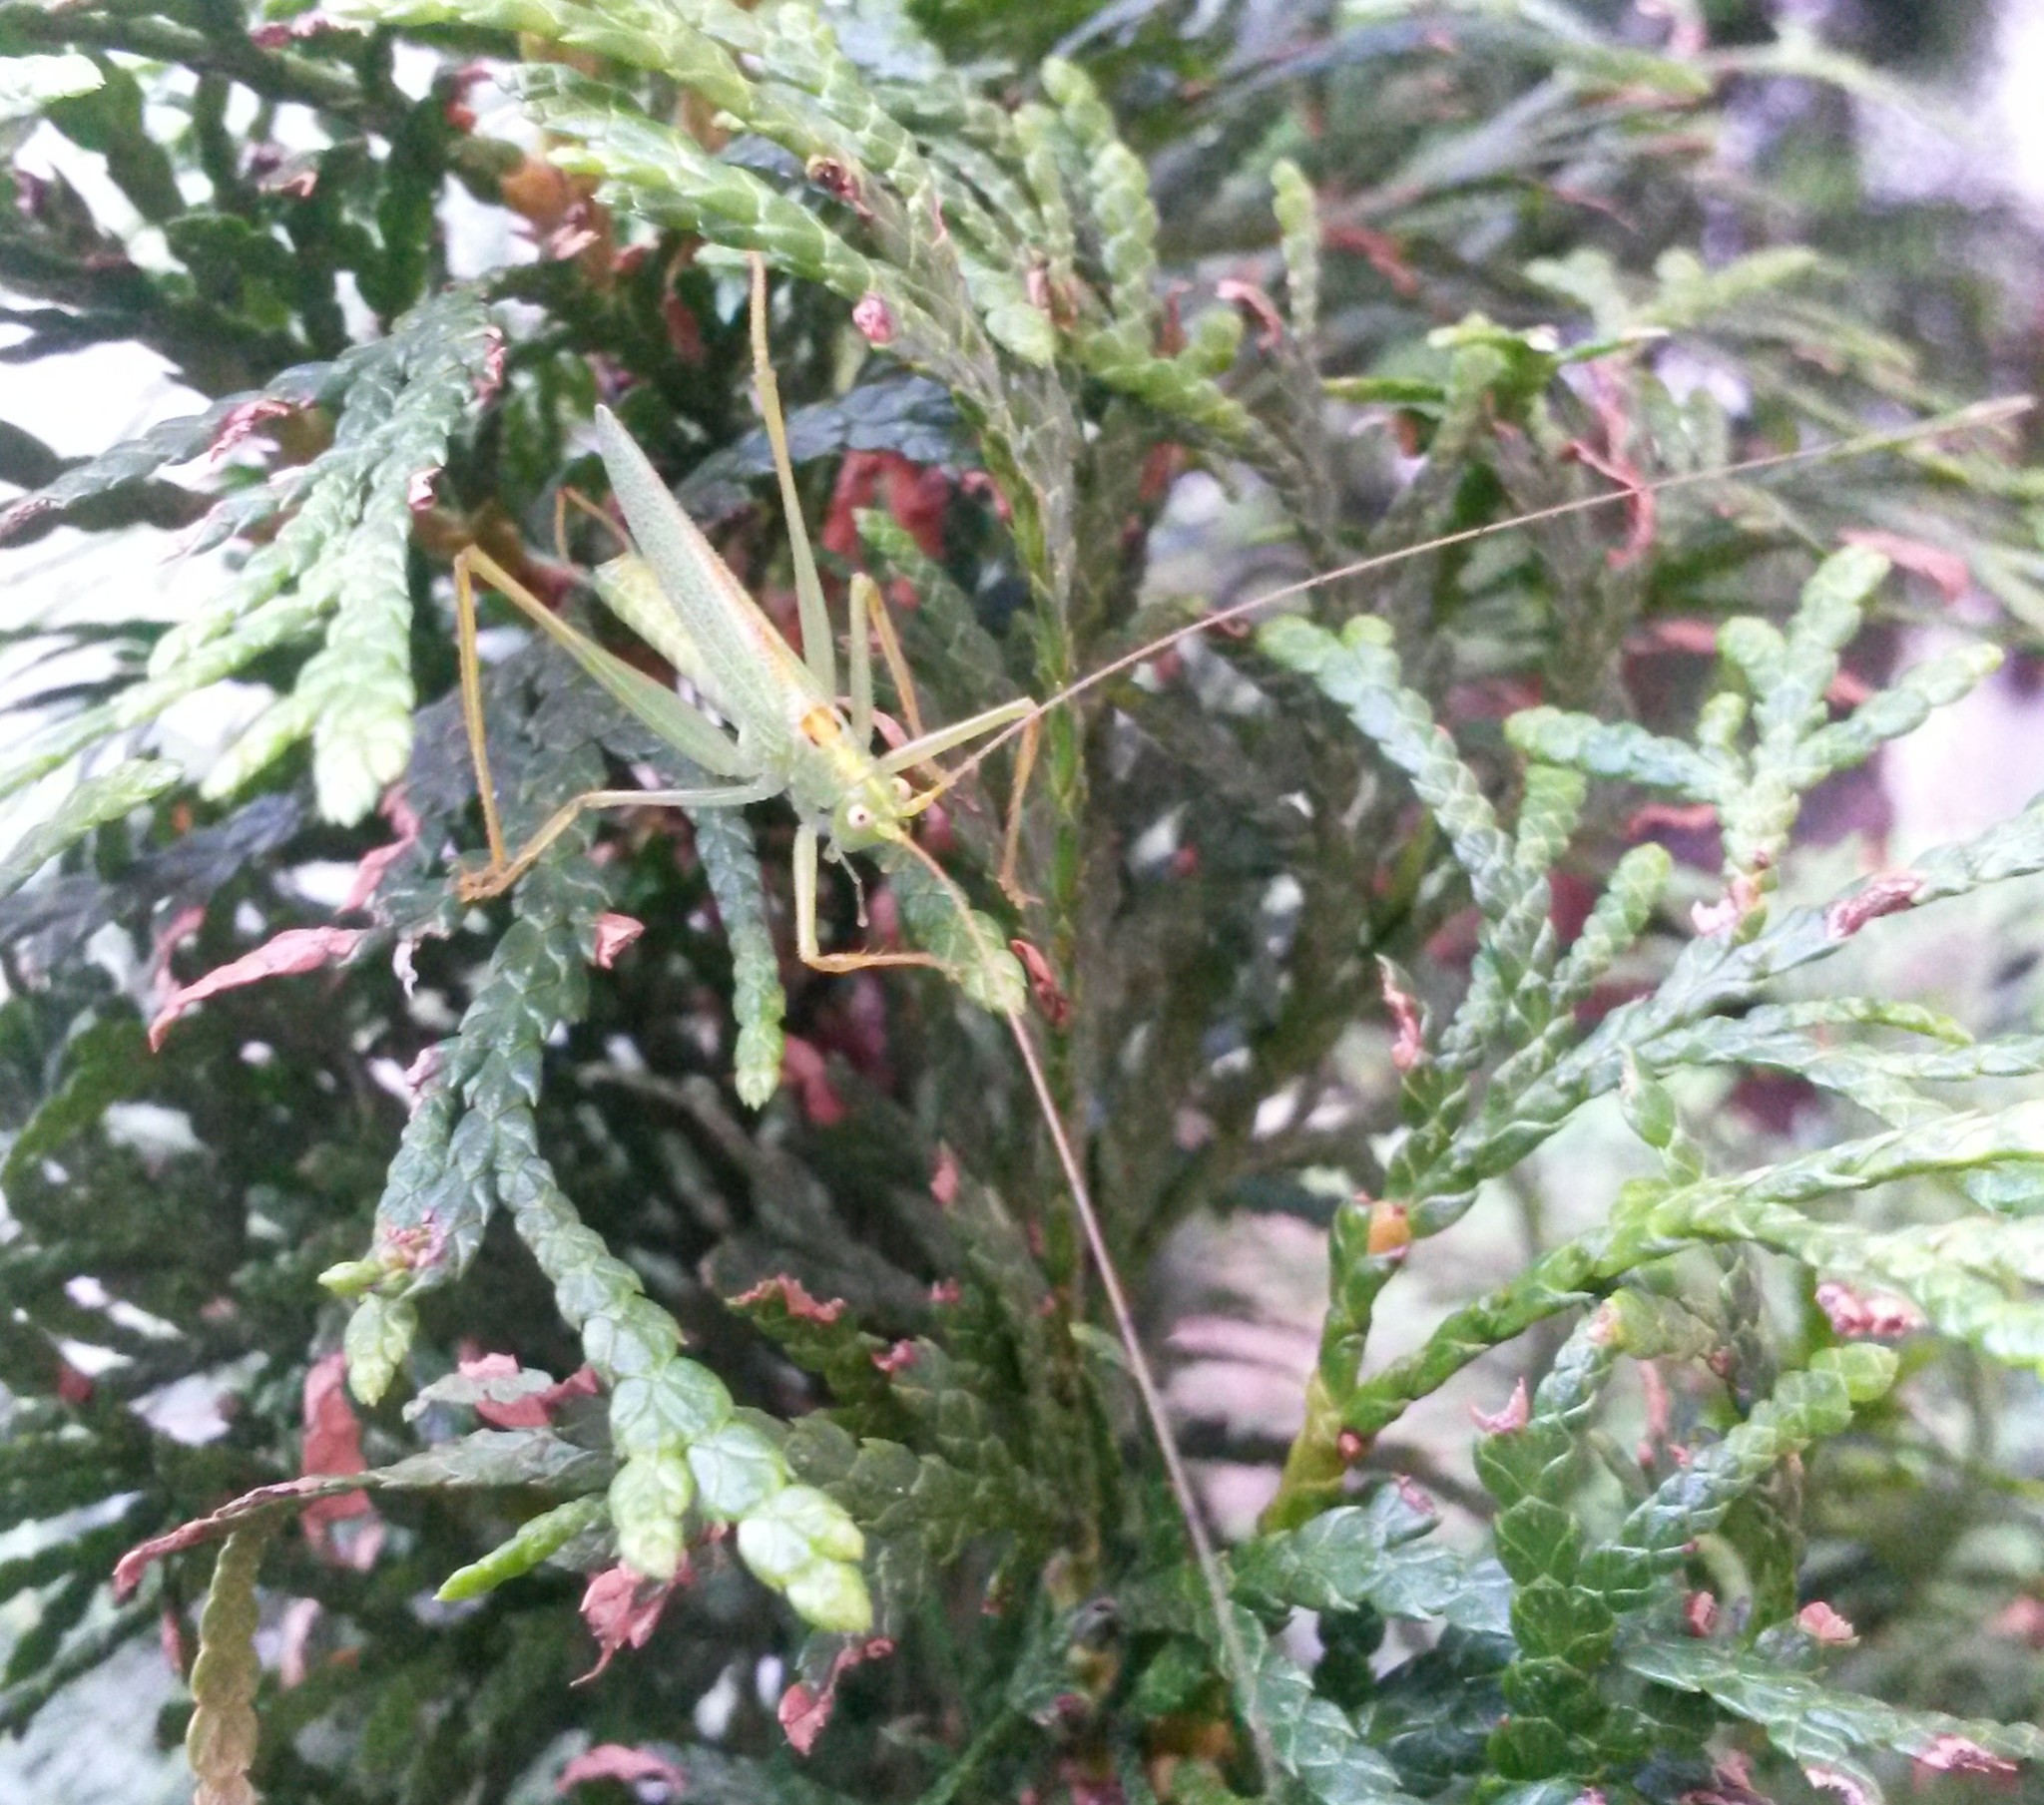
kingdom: Animalia
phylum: Arthropoda
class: Insecta
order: Orthoptera
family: Tettigoniidae
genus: Meconema
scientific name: Meconema thalassinum
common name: Oak bush-cricket
